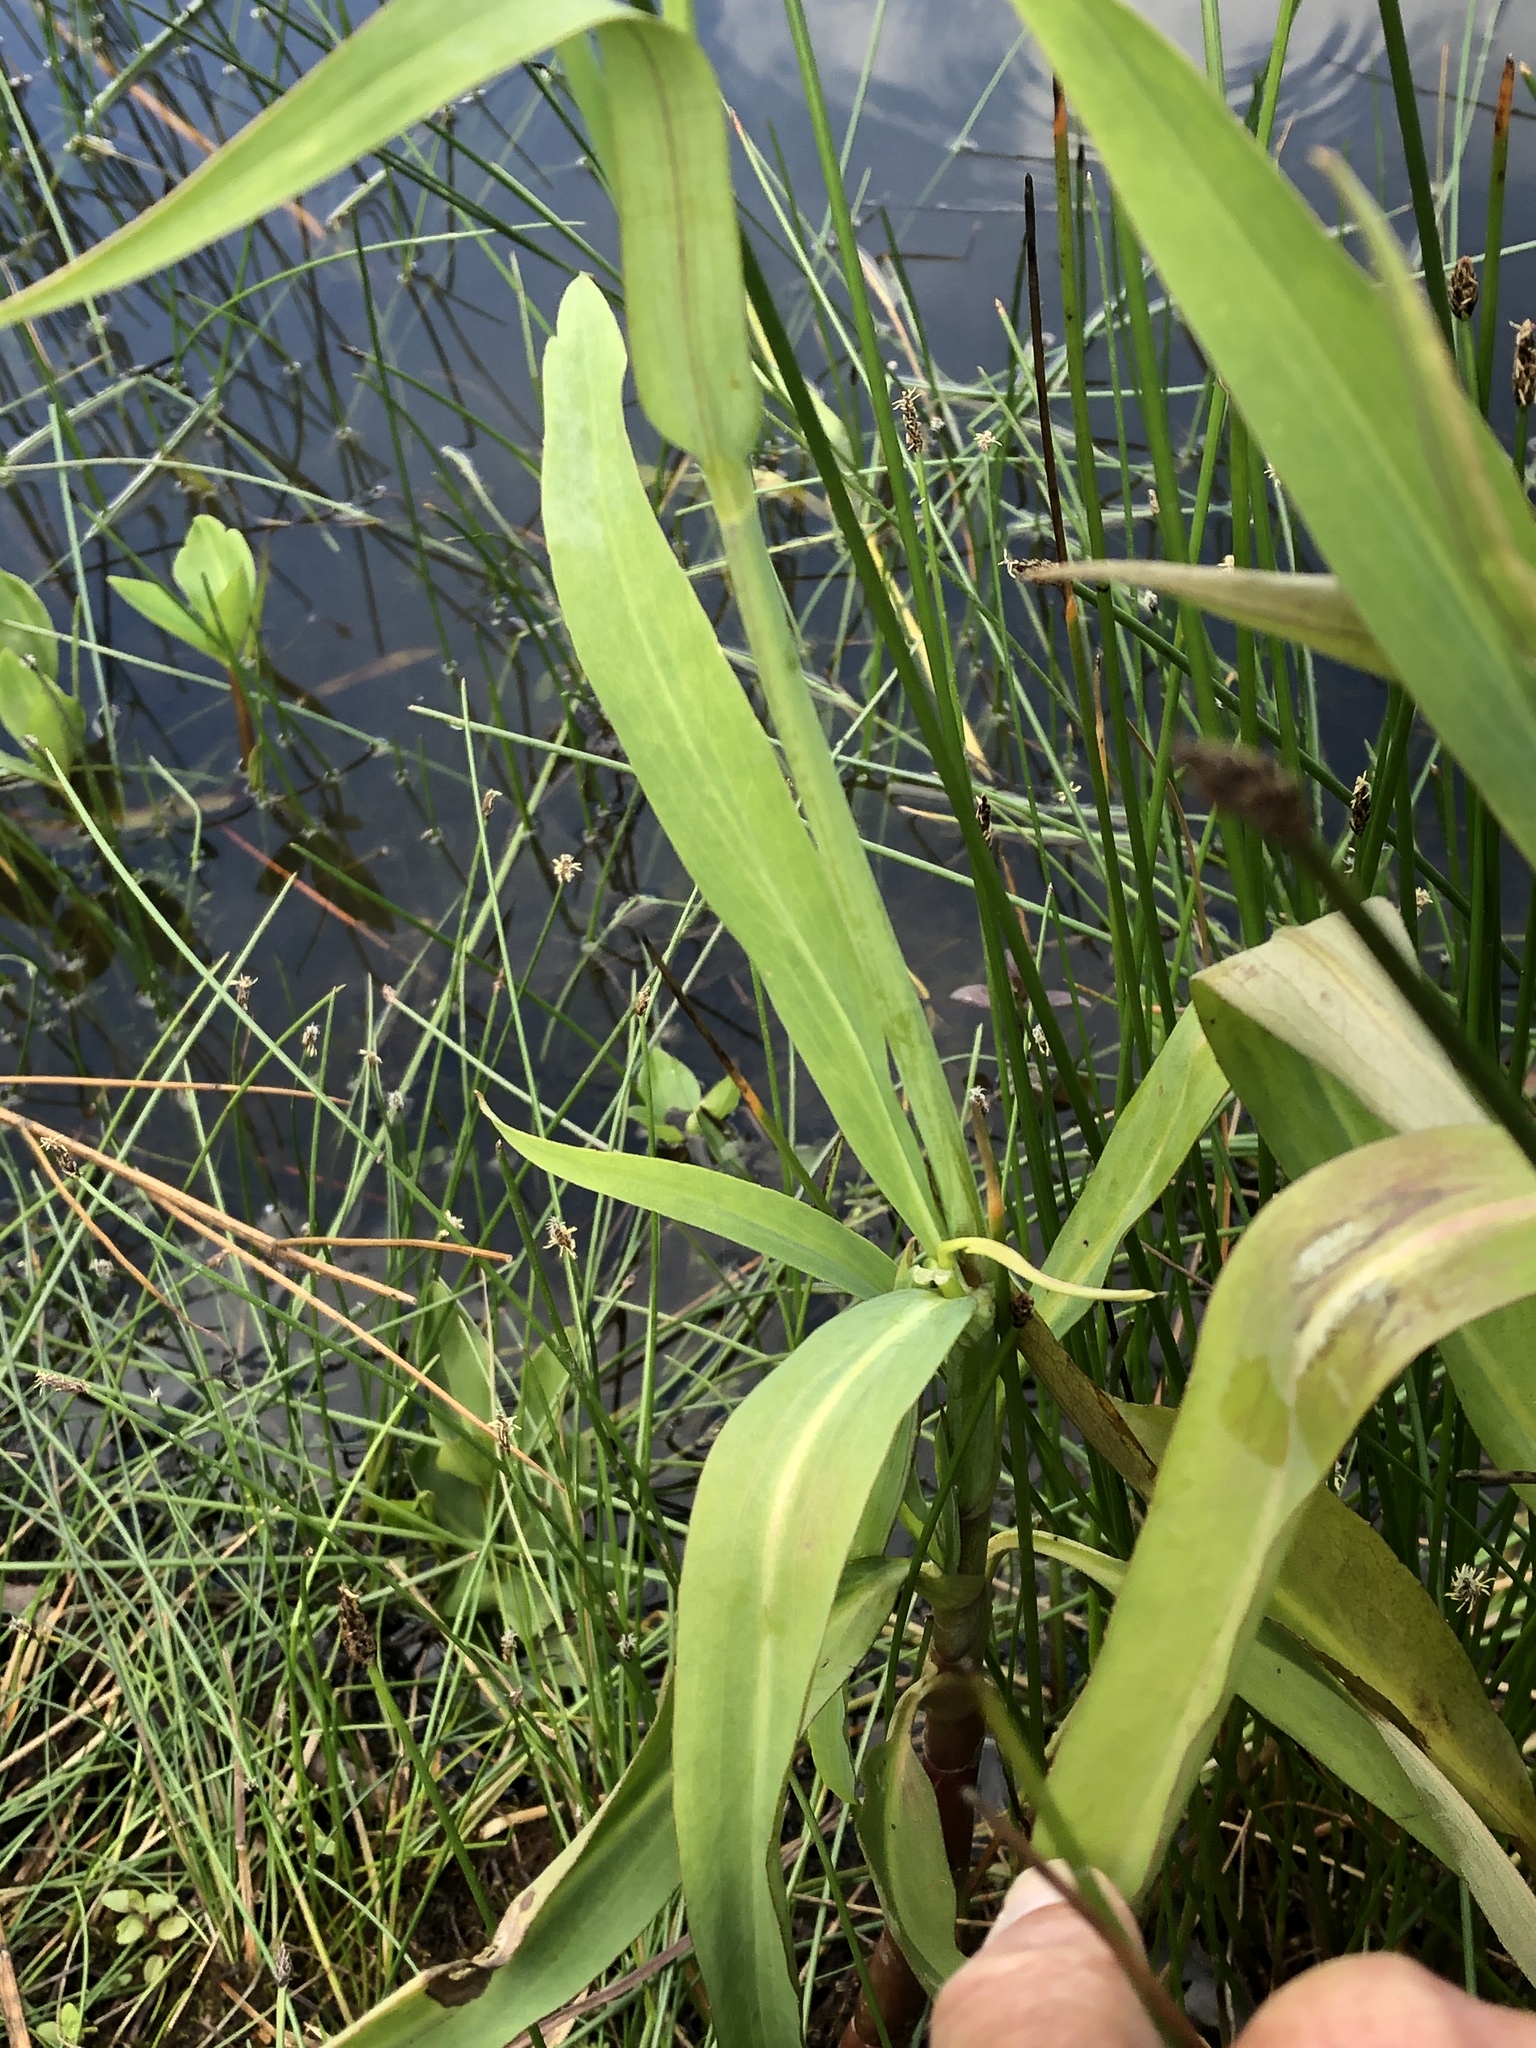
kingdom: Plantae
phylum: Tracheophyta
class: Magnoliopsida
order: Ranunculales
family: Ranunculaceae
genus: Ranunculus
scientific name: Ranunculus lingua
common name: Greater spearwort
